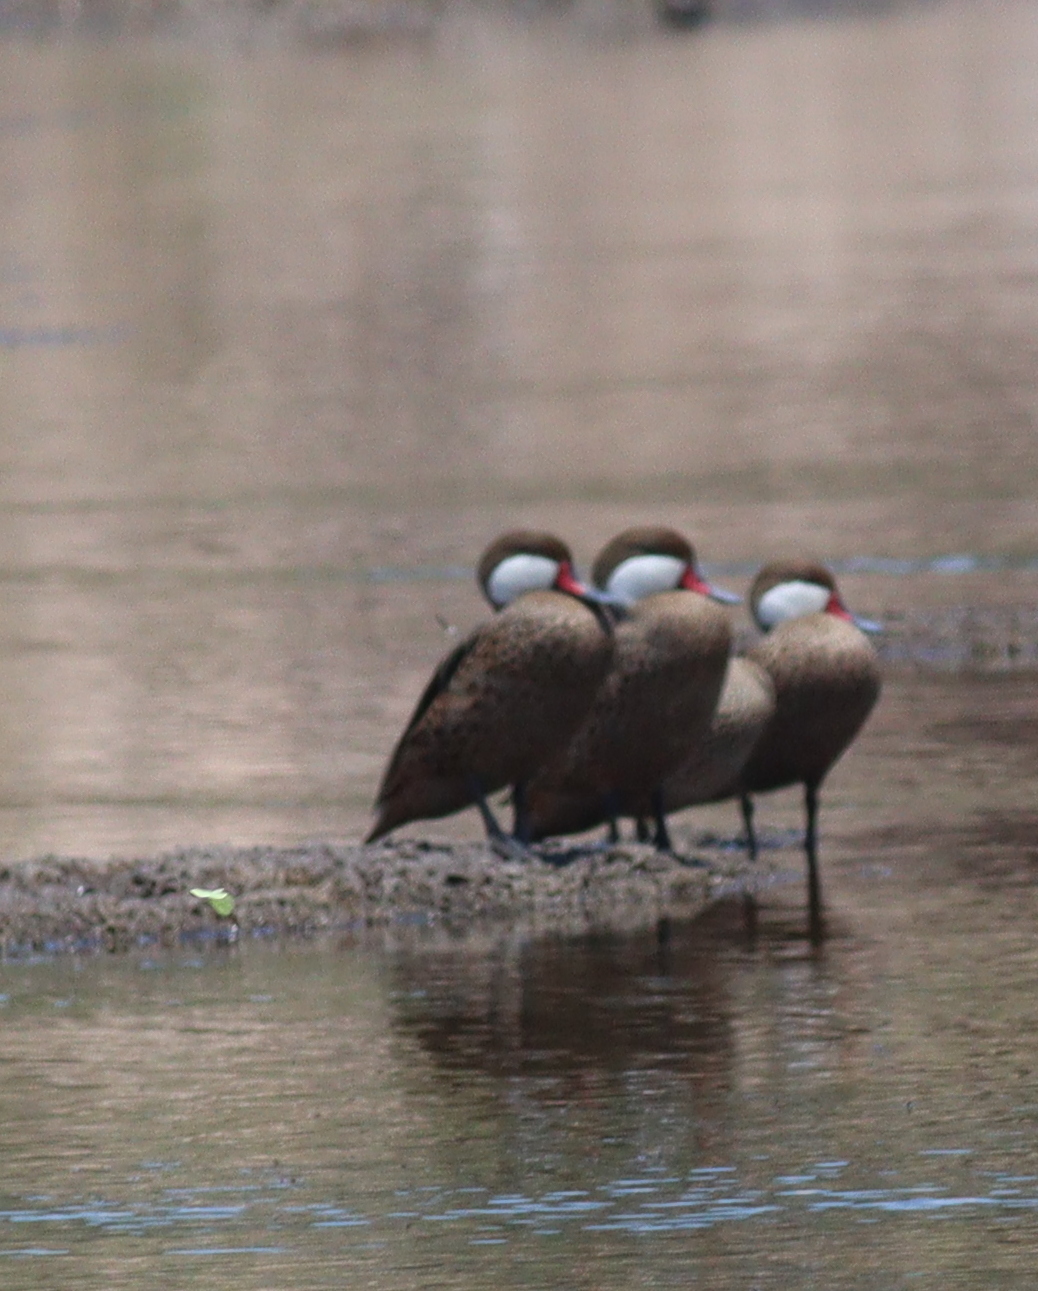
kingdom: Animalia
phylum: Chordata
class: Aves
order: Anseriformes
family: Anatidae
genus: Anas
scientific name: Anas bahamensis
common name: White-cheeked pintail
